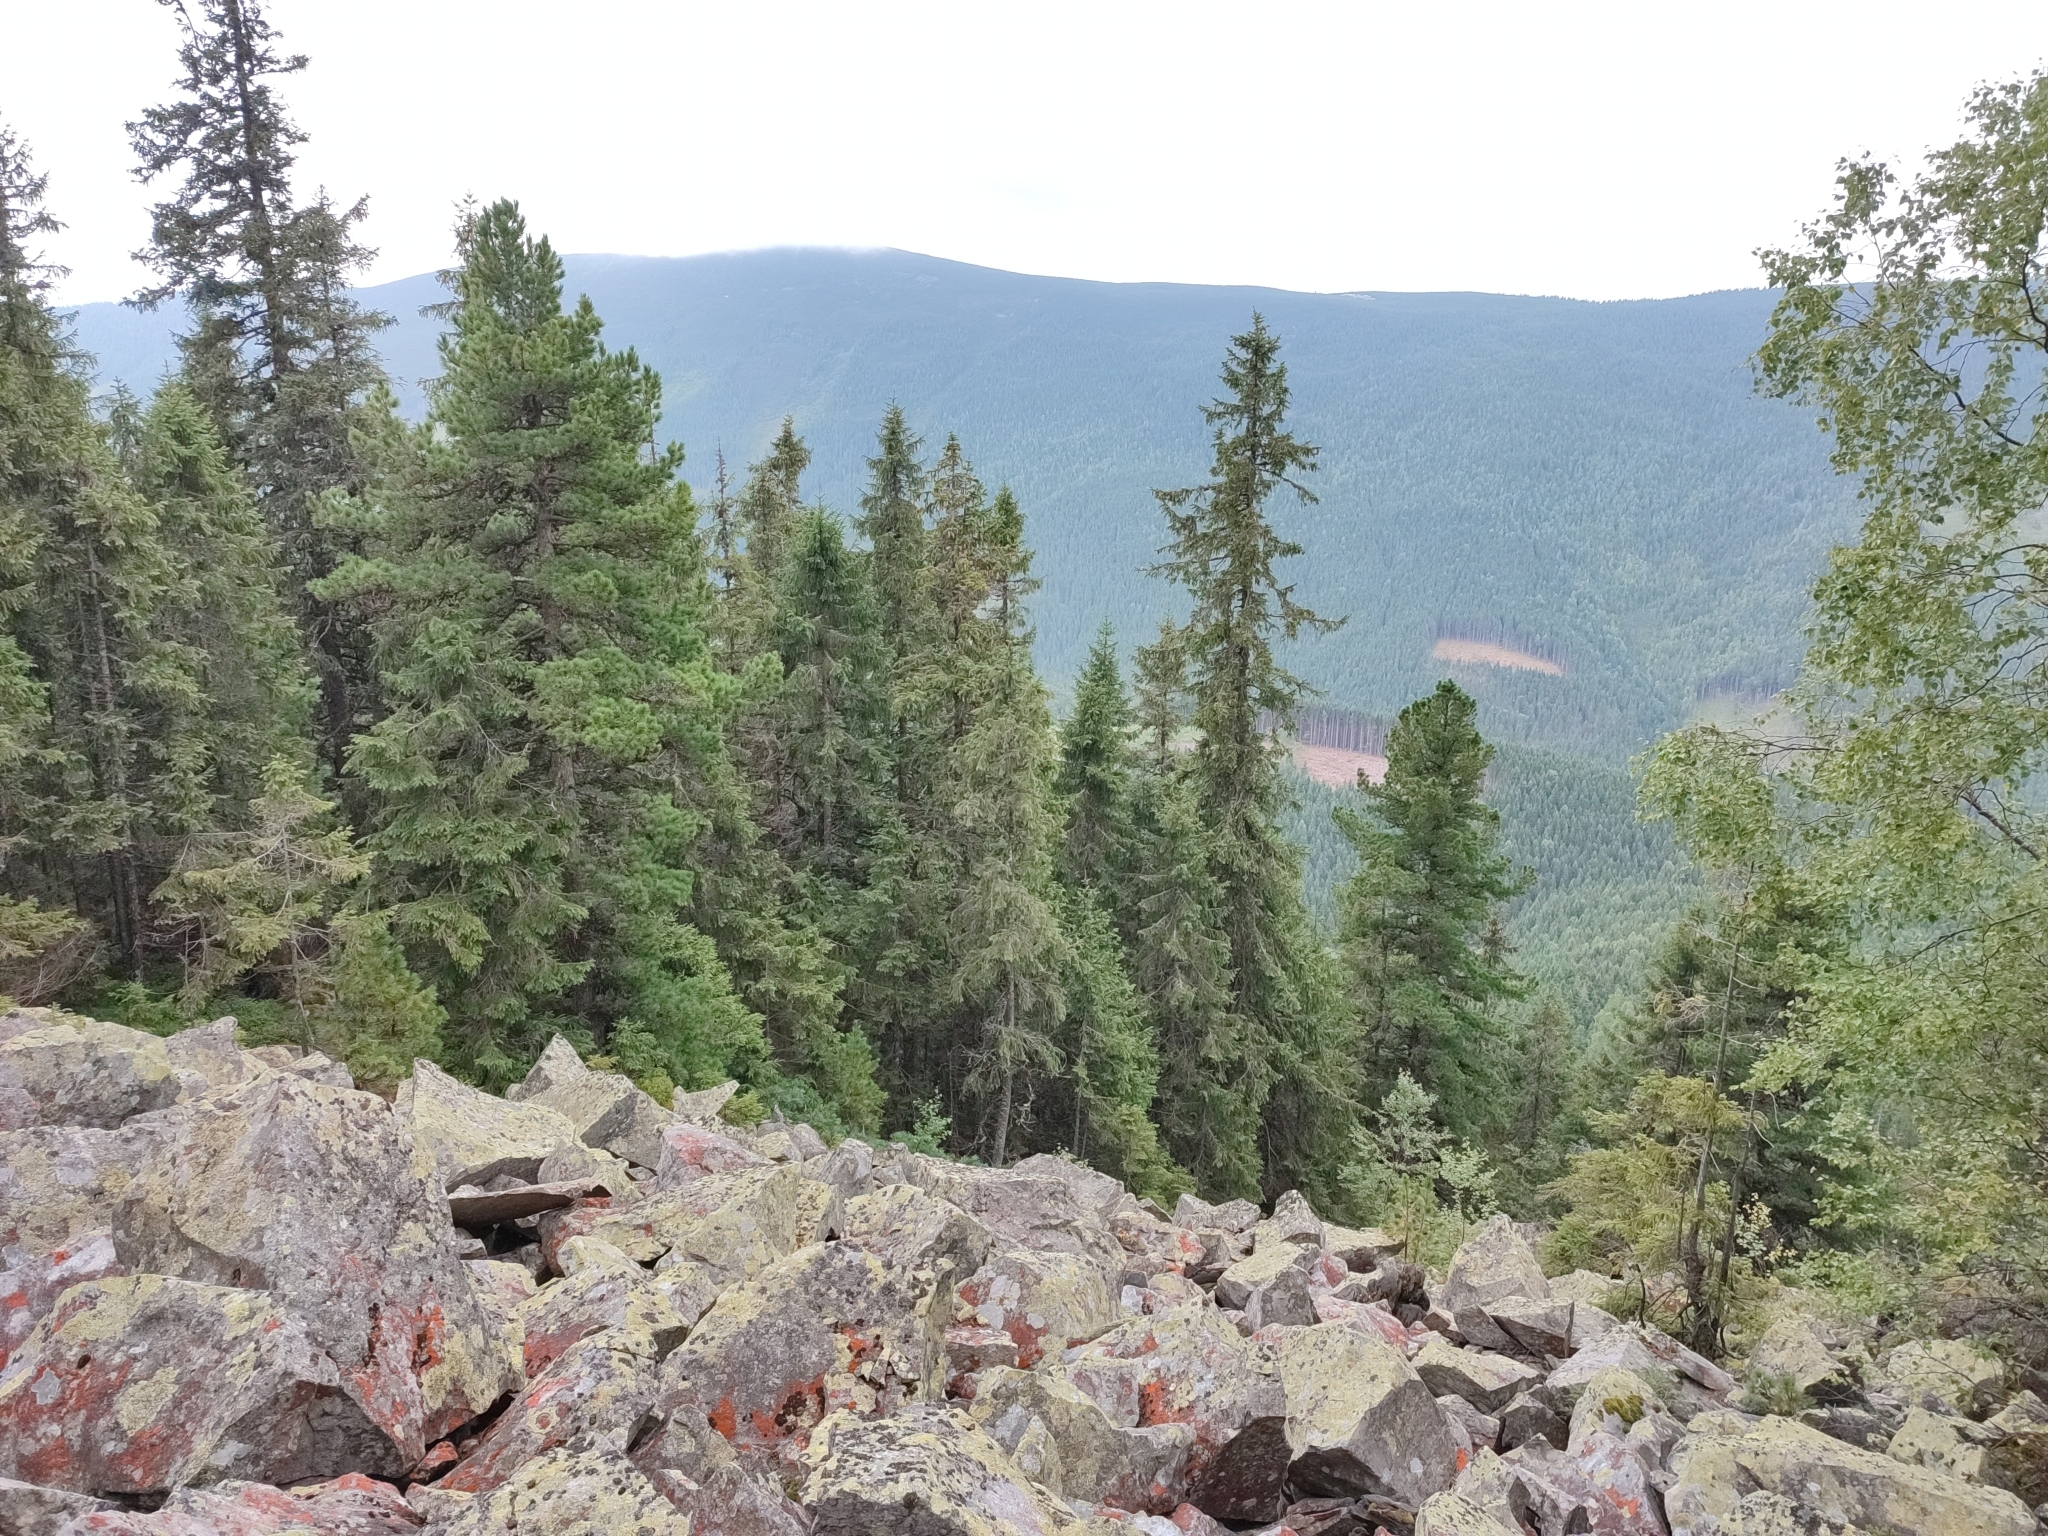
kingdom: Plantae
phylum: Tracheophyta
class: Pinopsida
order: Pinales
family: Pinaceae
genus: Pinus
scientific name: Pinus cembra
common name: Arolla pine
